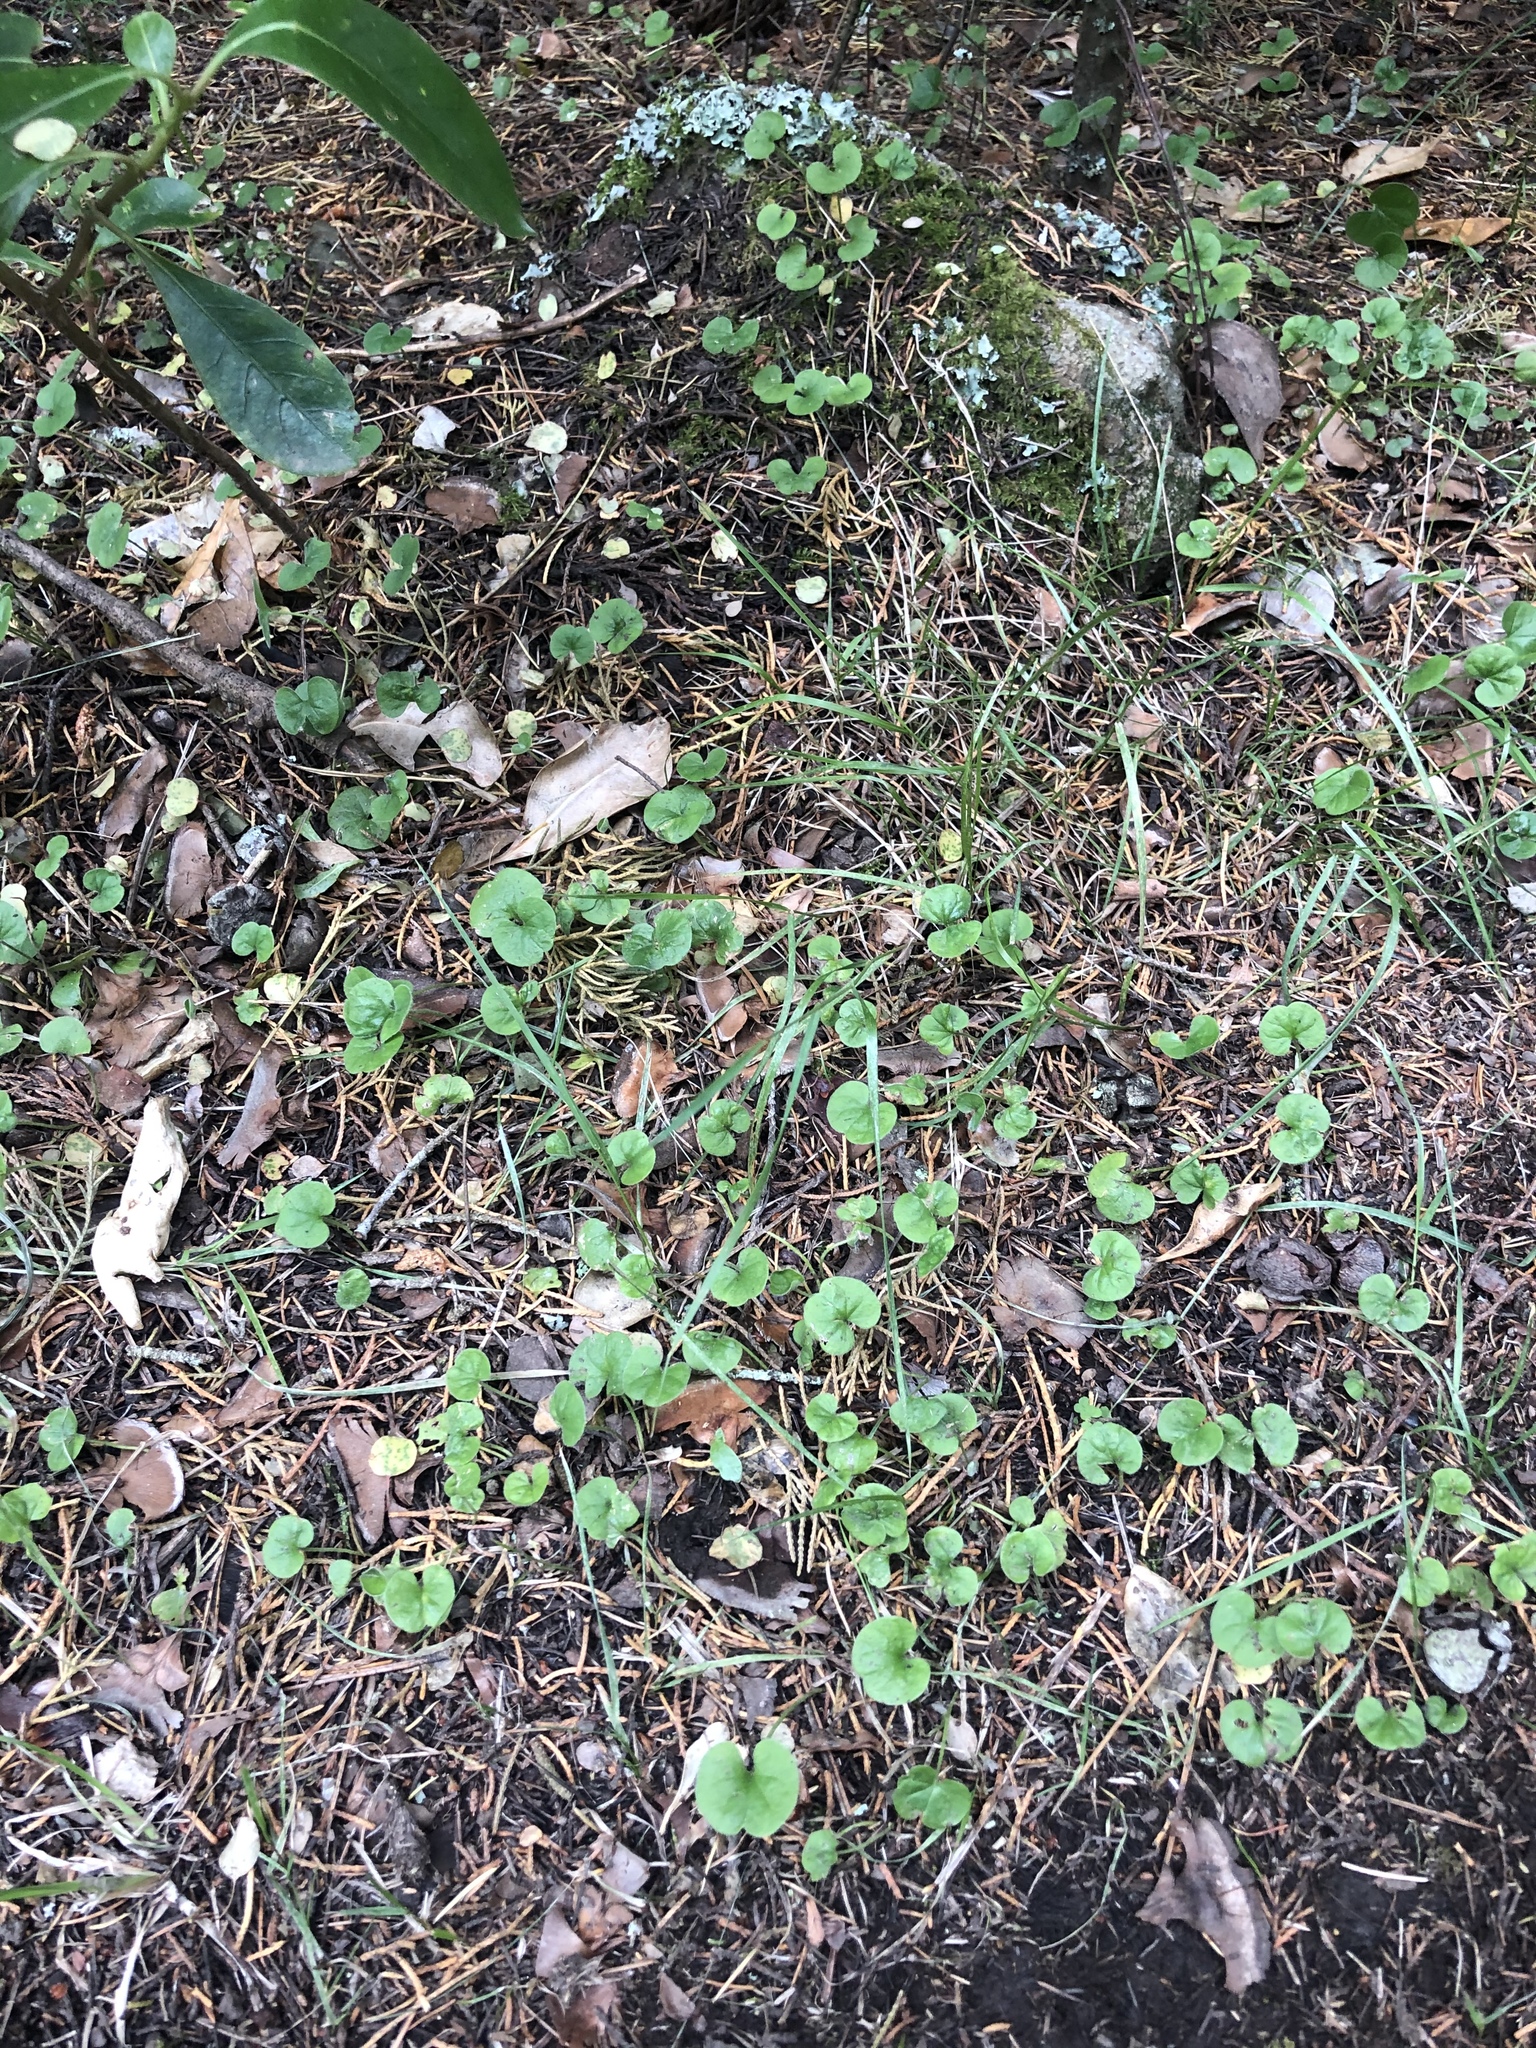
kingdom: Plantae
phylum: Tracheophyta
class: Magnoliopsida
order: Solanales
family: Convolvulaceae
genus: Dichondra
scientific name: Dichondra repens
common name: Kidneyweed
